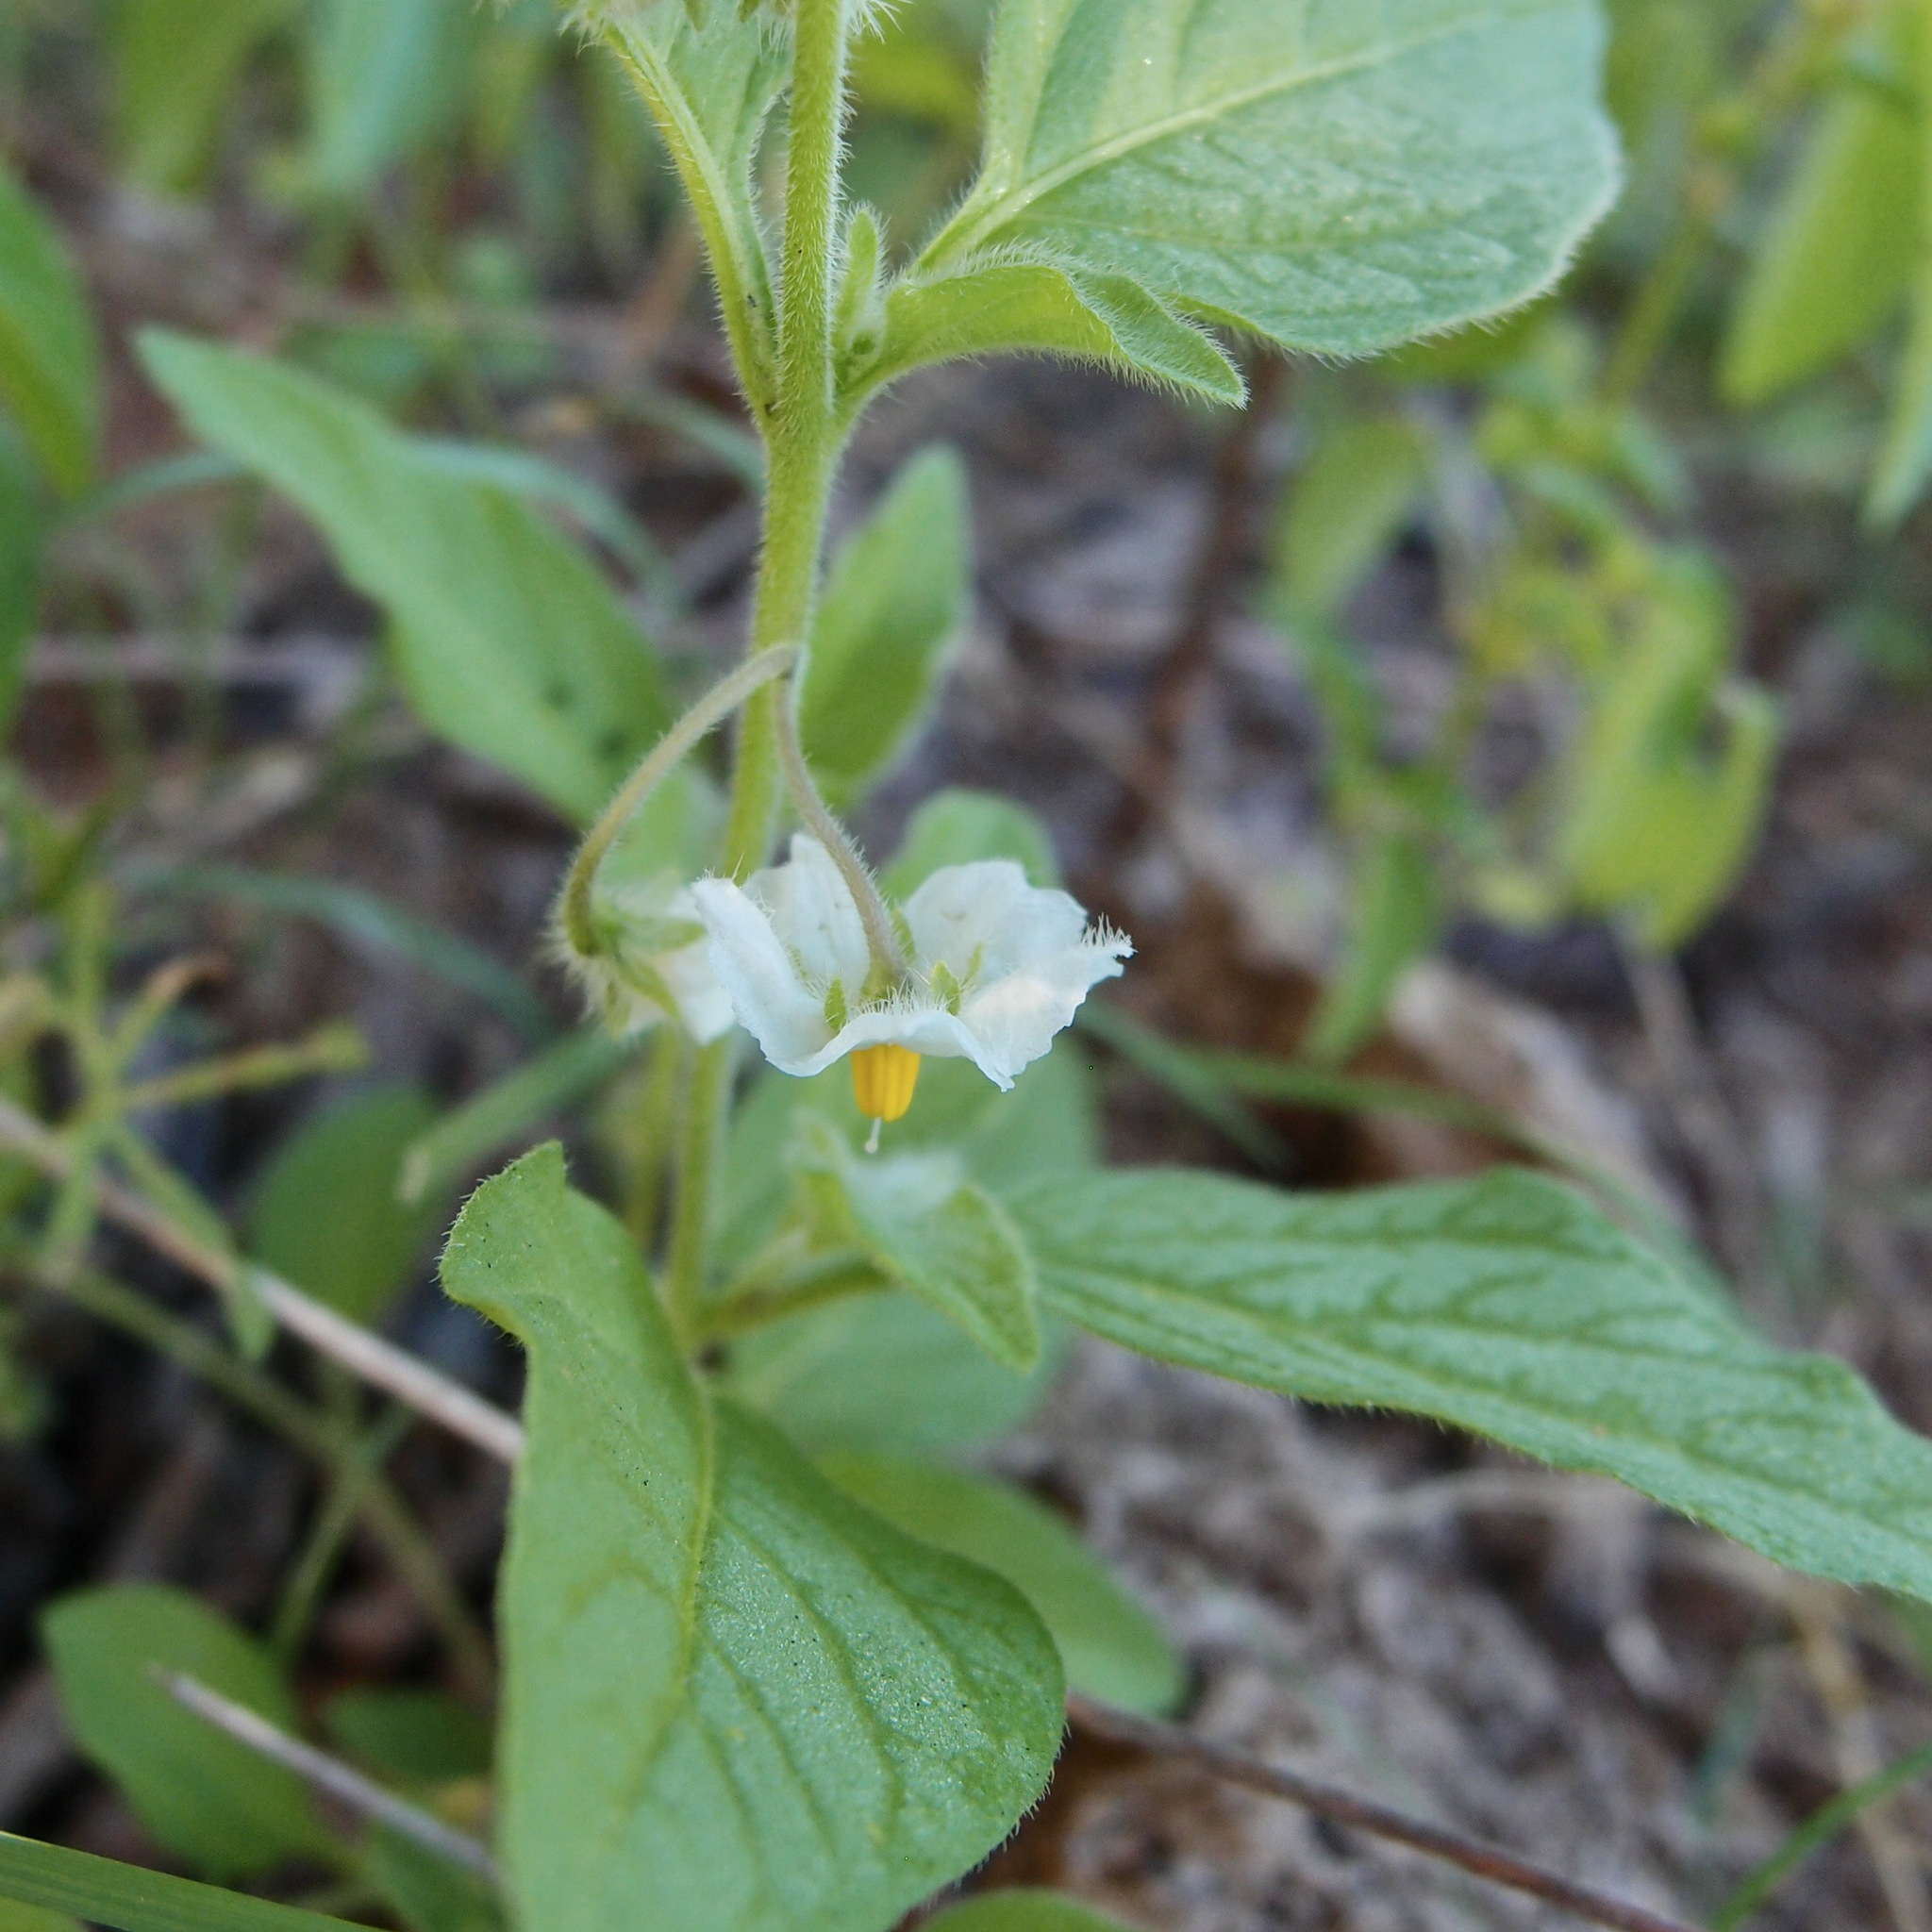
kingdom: Plantae
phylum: Tracheophyta
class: Magnoliopsida
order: Solanales
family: Solanaceae
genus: Solanum
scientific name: Solanum deflexum
